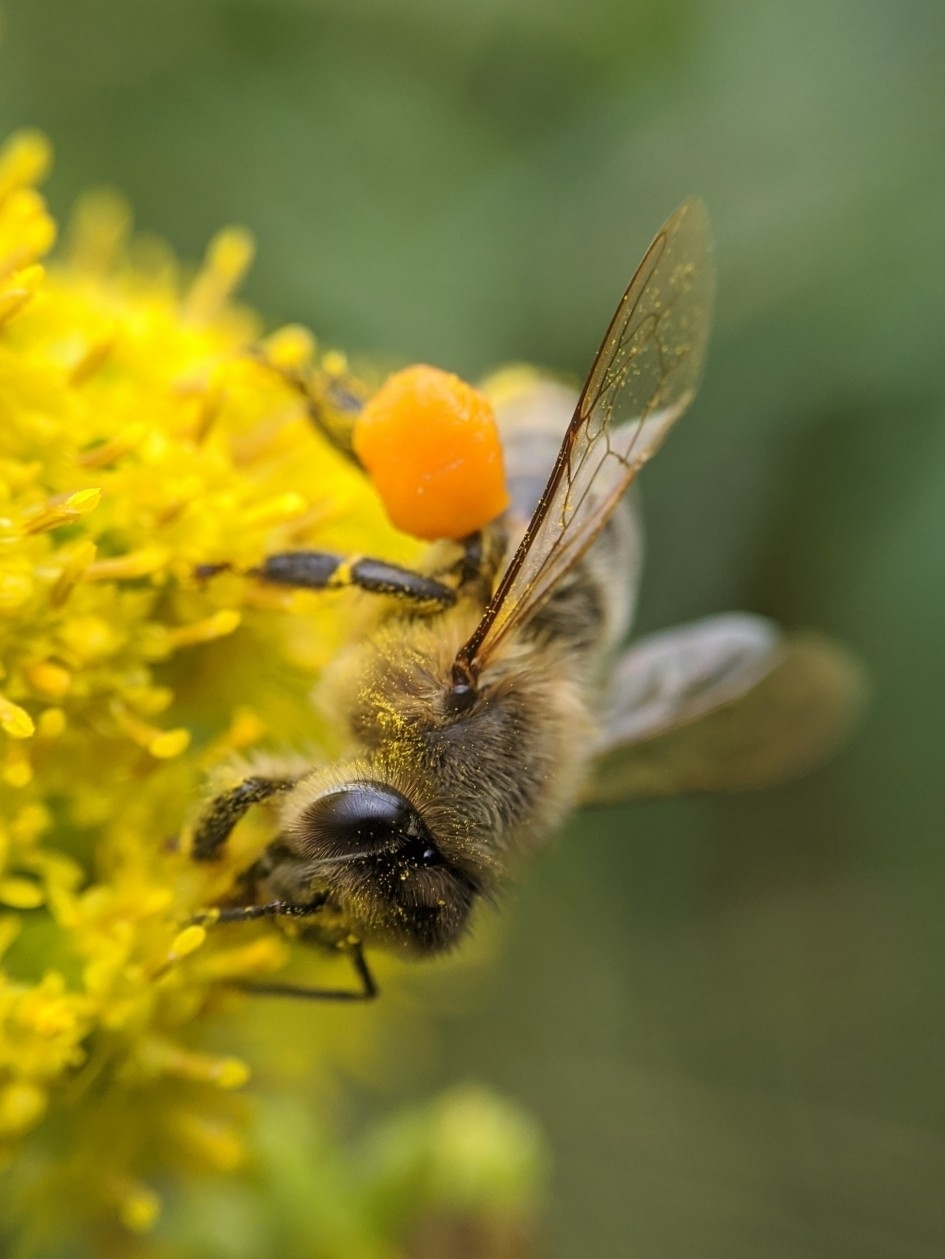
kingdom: Animalia
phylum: Arthropoda
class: Insecta
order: Hymenoptera
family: Apidae
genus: Apis
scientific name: Apis mellifera
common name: Honey bee
